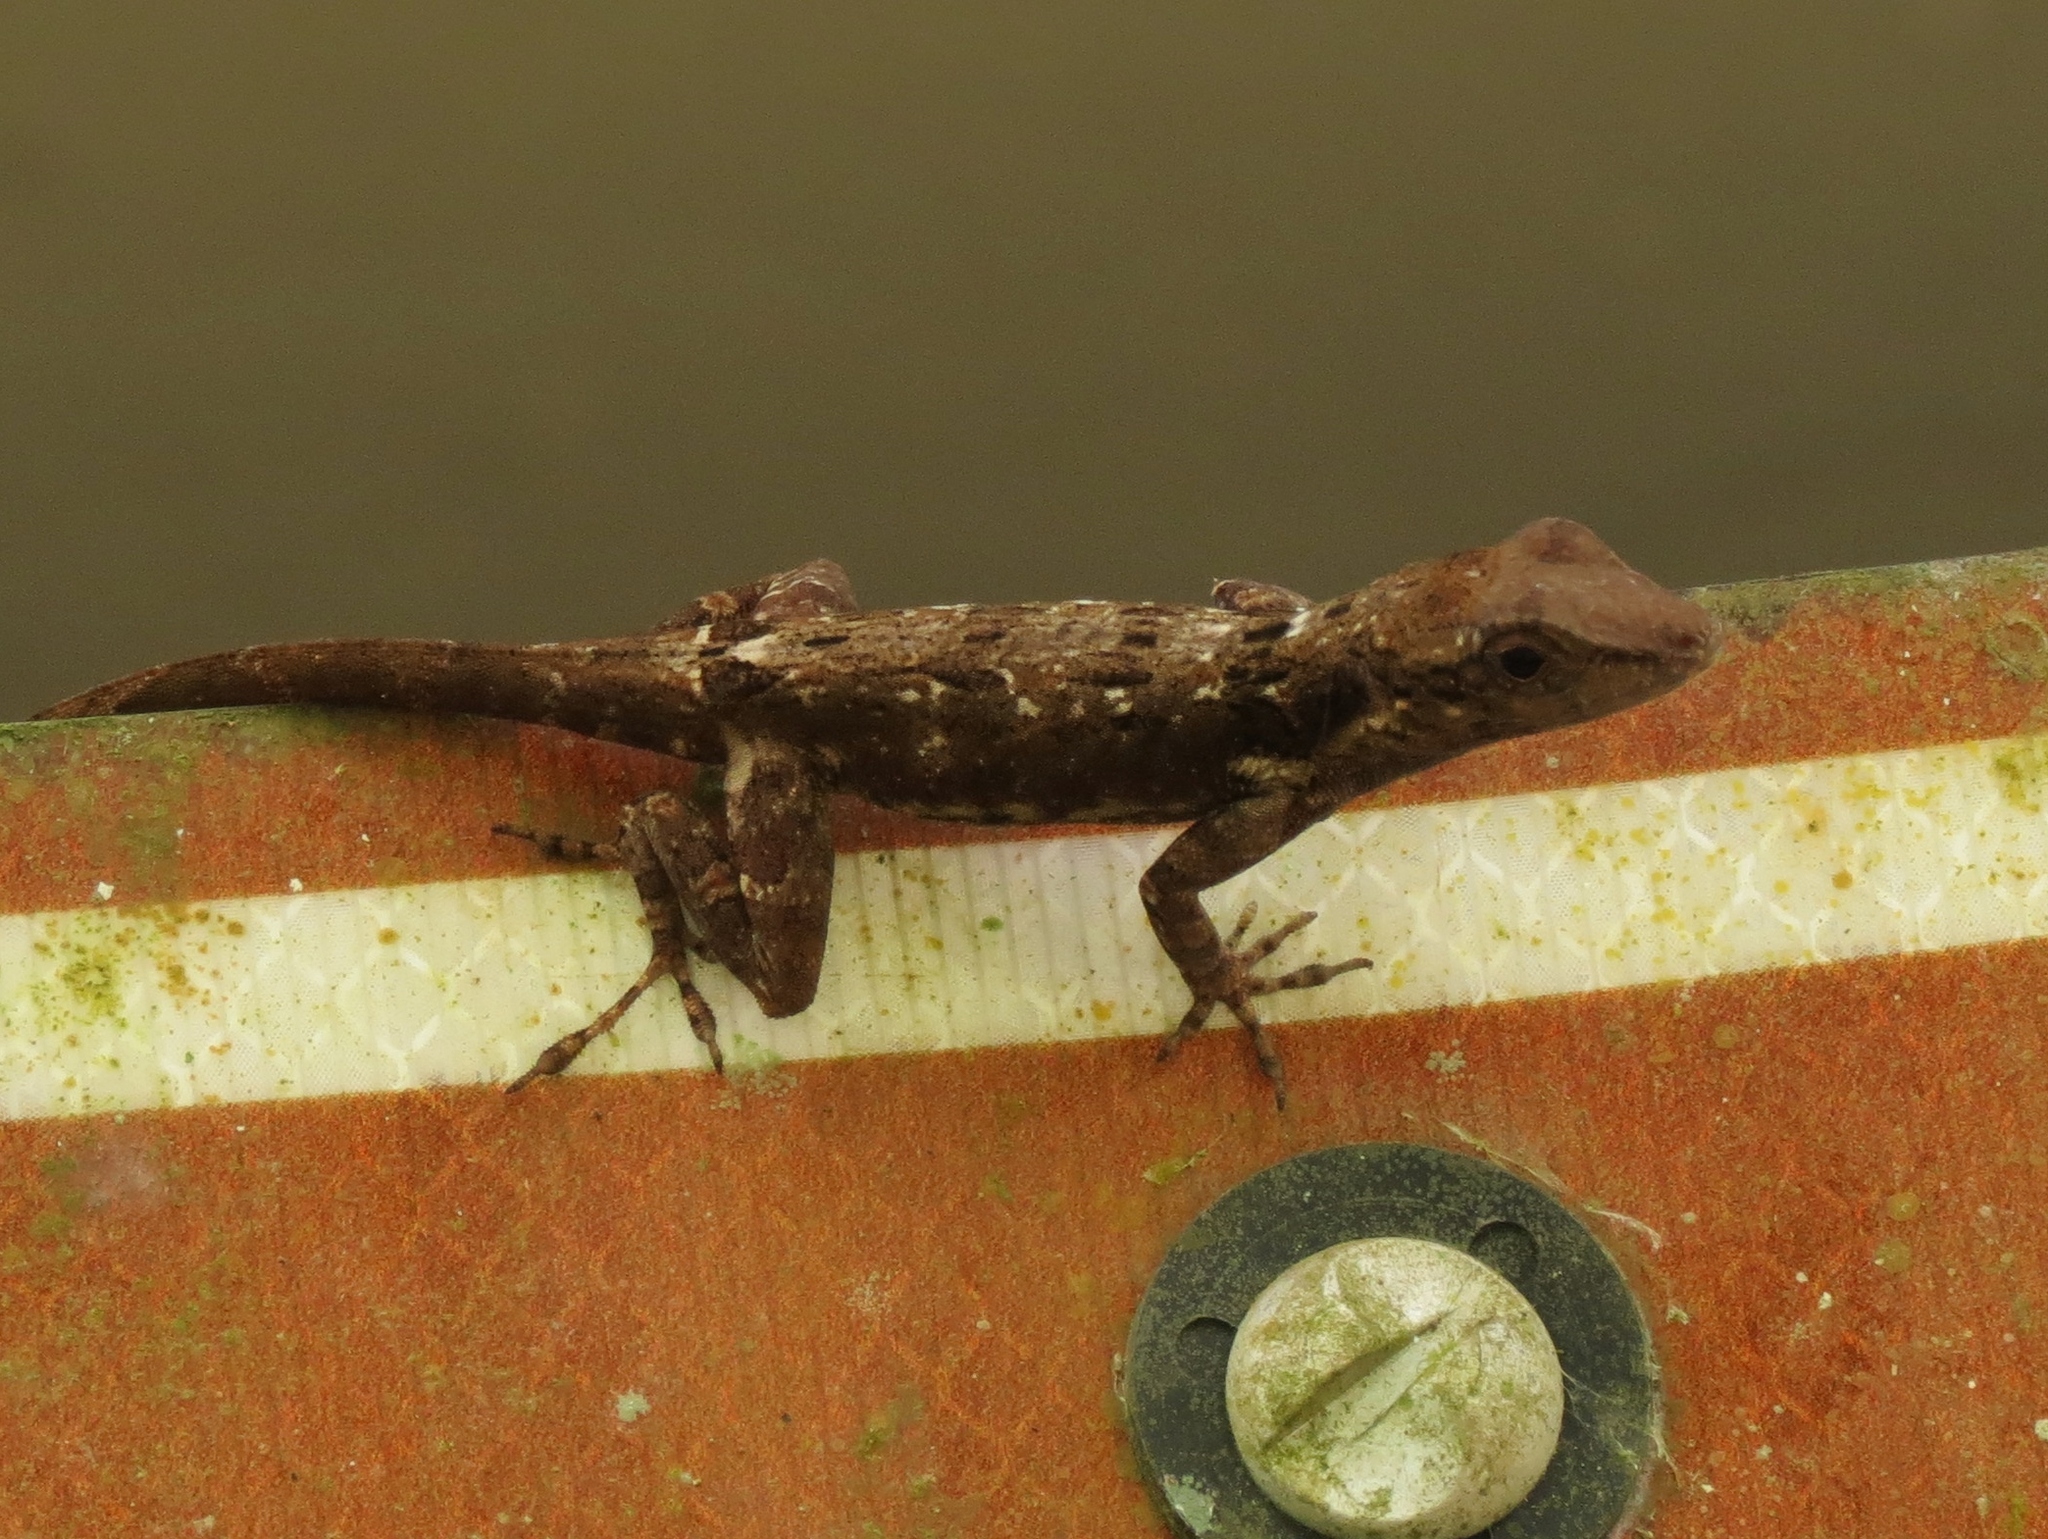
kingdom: Animalia
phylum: Chordata
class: Squamata
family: Dactyloidae
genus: Anolis
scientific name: Anolis cristatellus
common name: Crested anole
